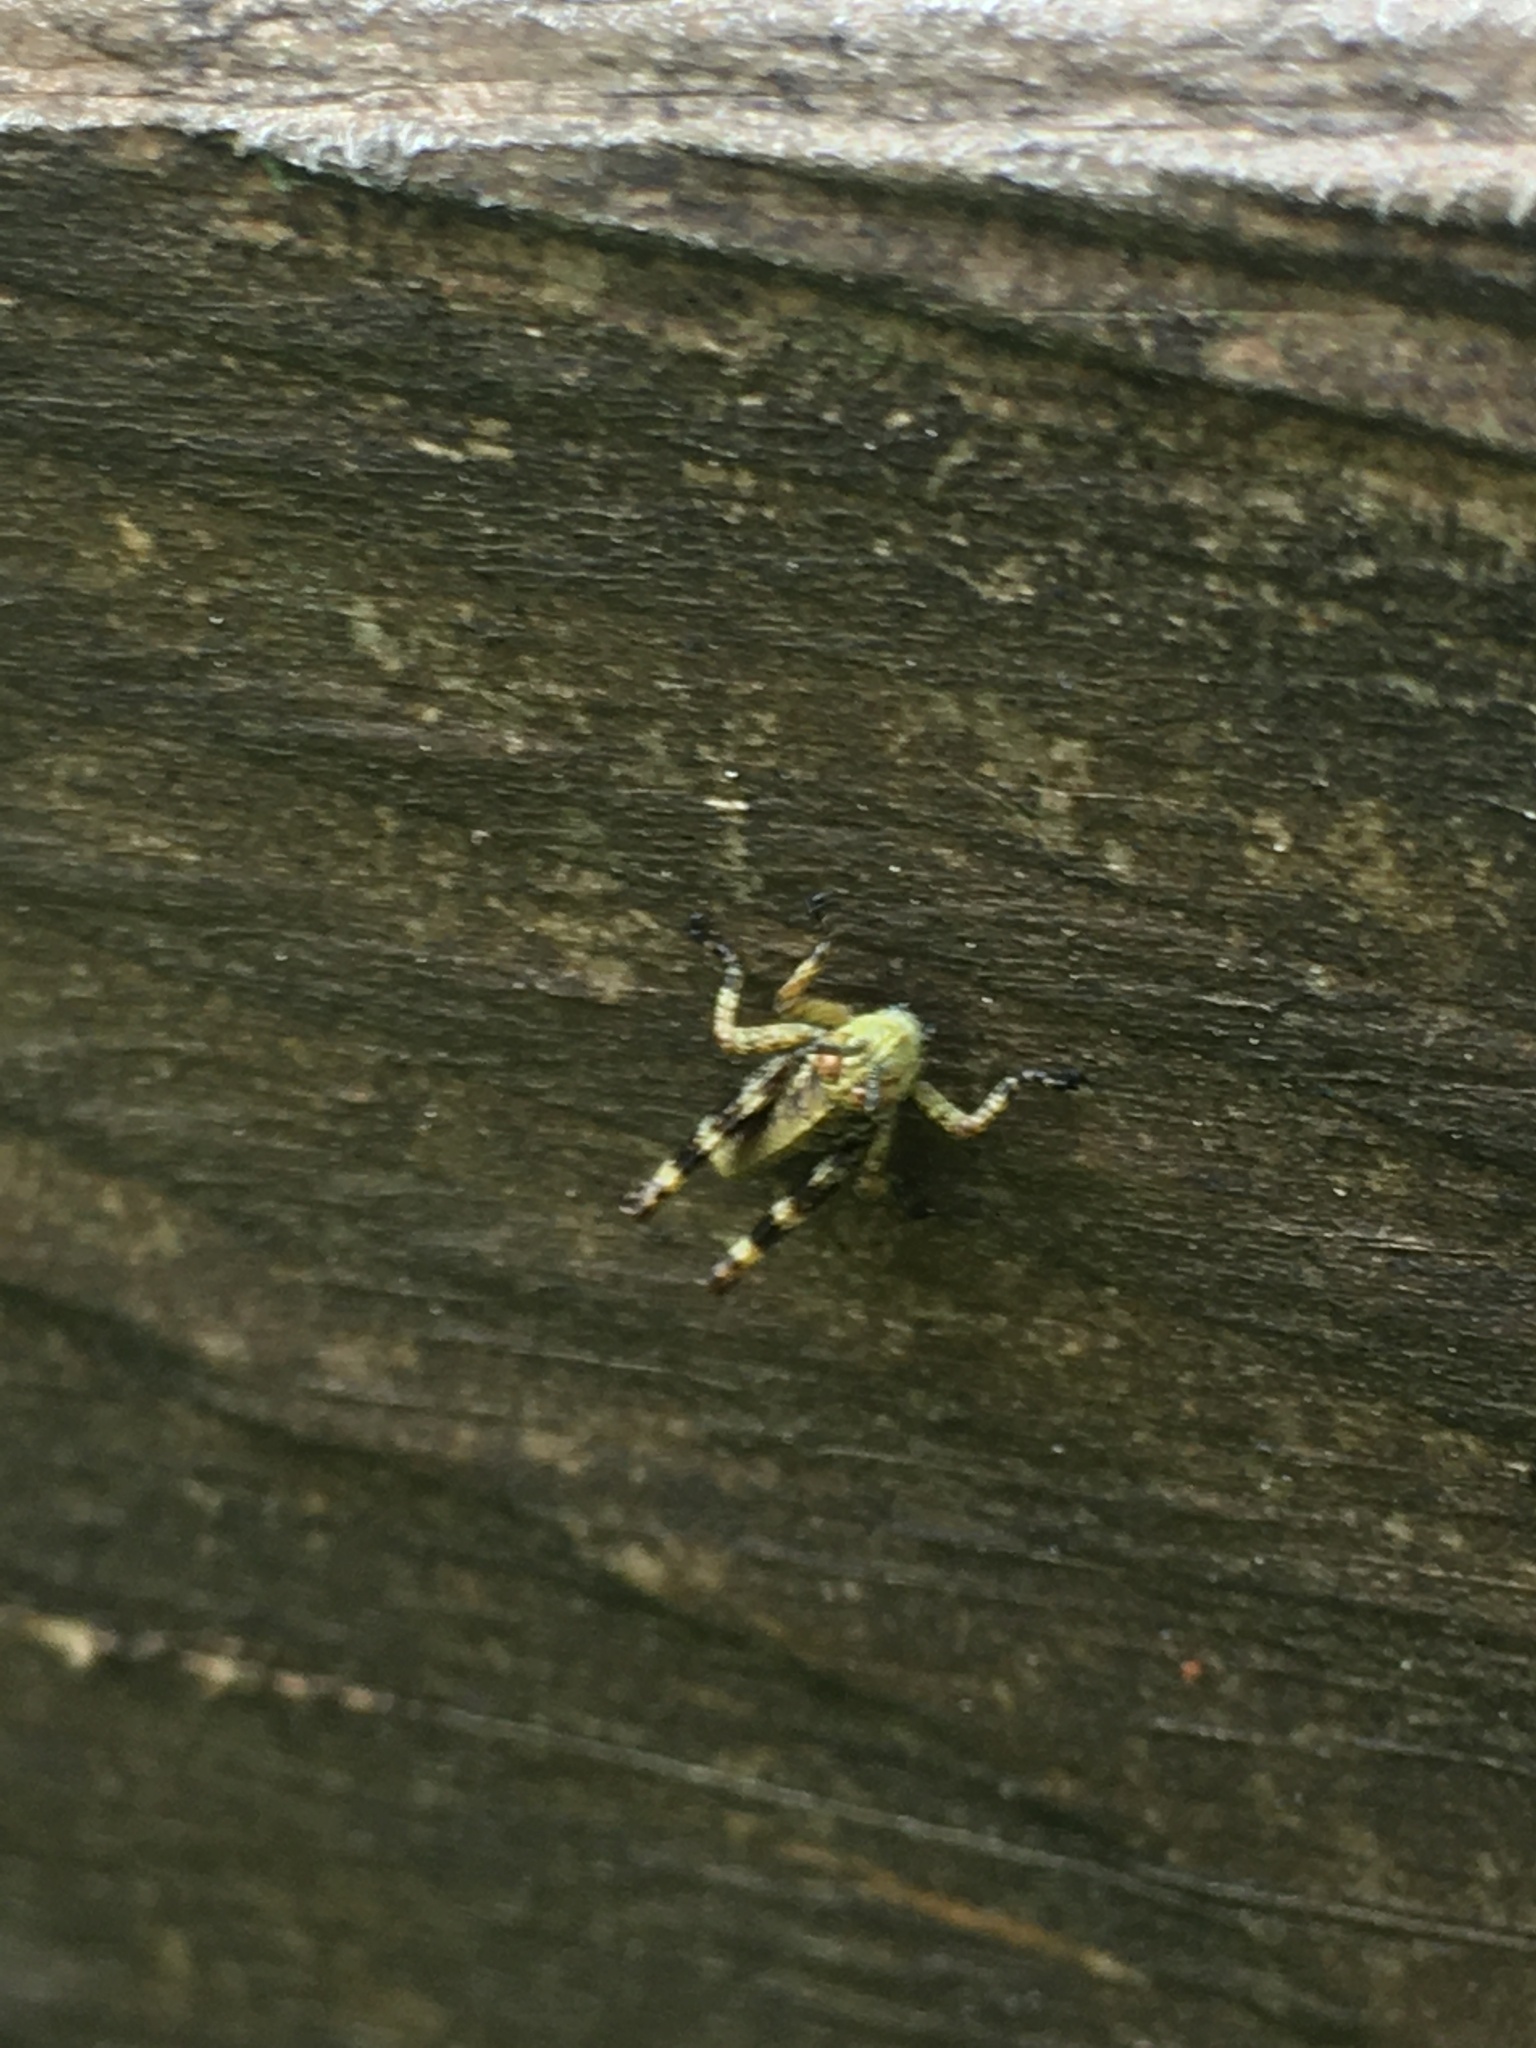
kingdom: Animalia
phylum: Arthropoda
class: Insecta
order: Orthoptera
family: Acrididae
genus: Booneacris
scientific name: Booneacris glacialis
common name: Wingless mountain grasshopper
